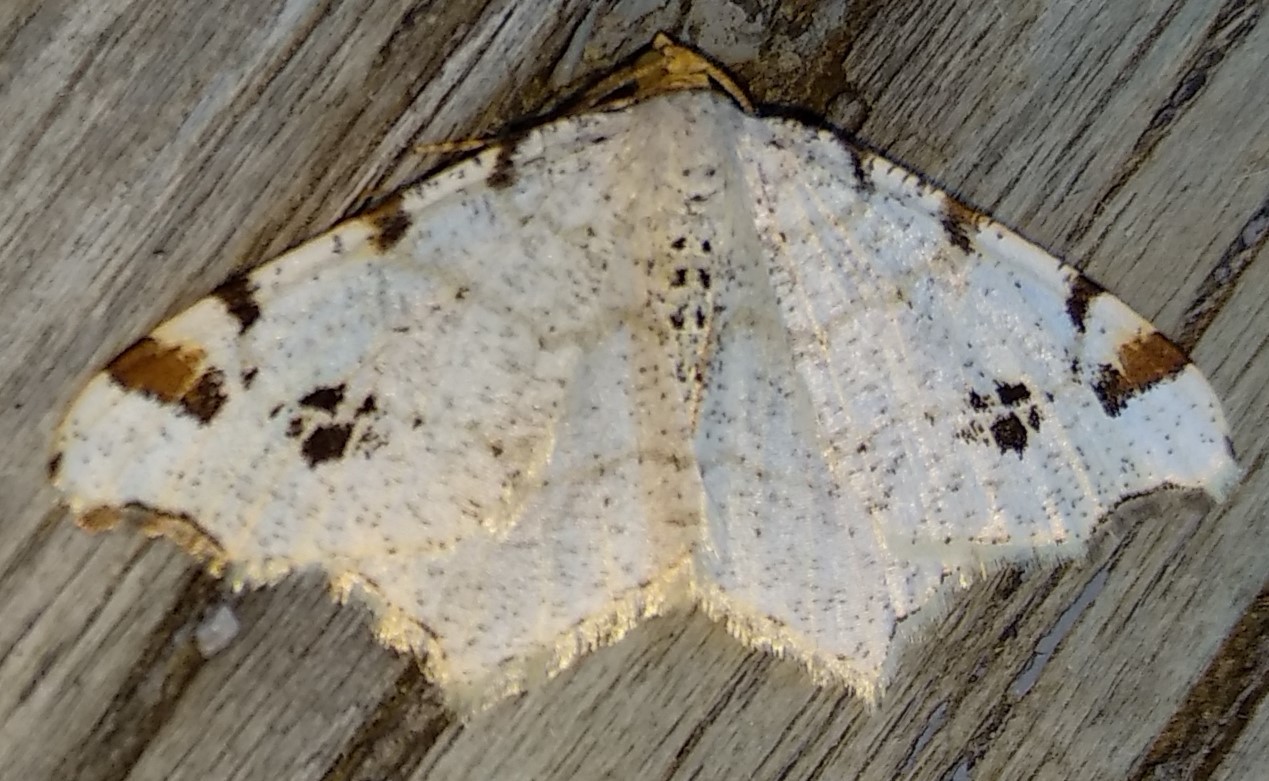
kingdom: Animalia
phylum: Arthropoda
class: Insecta
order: Lepidoptera
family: Geometridae
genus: Macaria
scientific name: Macaria ulsterata
